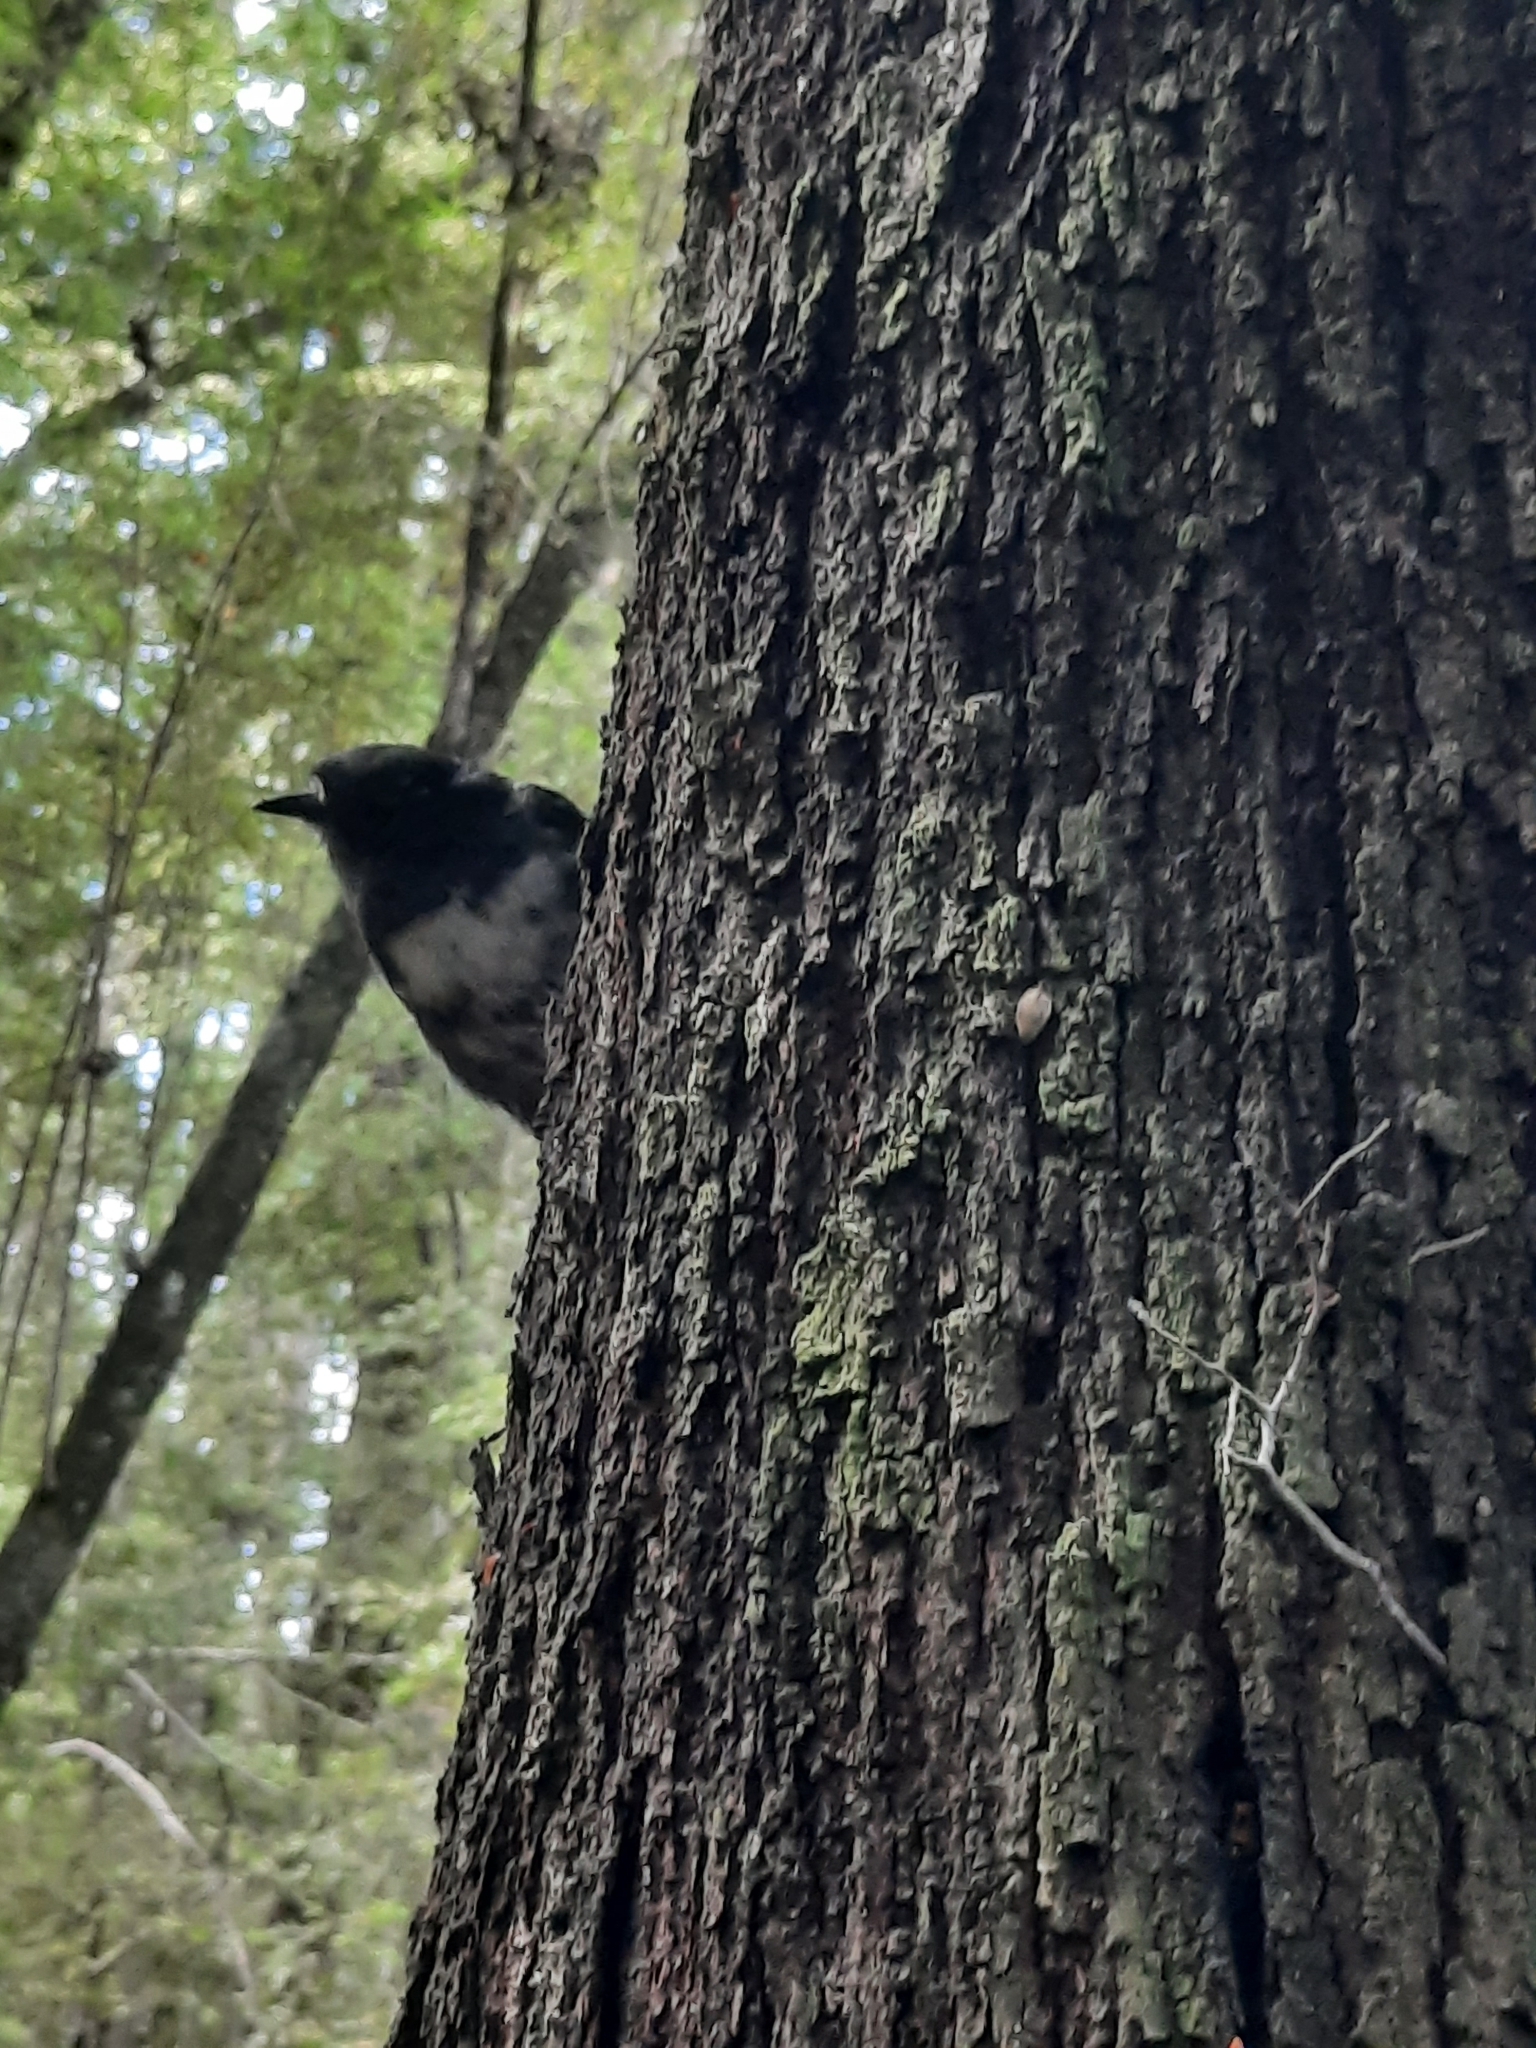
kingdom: Animalia
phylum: Chordata
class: Aves
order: Passeriformes
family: Petroicidae
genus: Petroica
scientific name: Petroica australis
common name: New zealand robin
